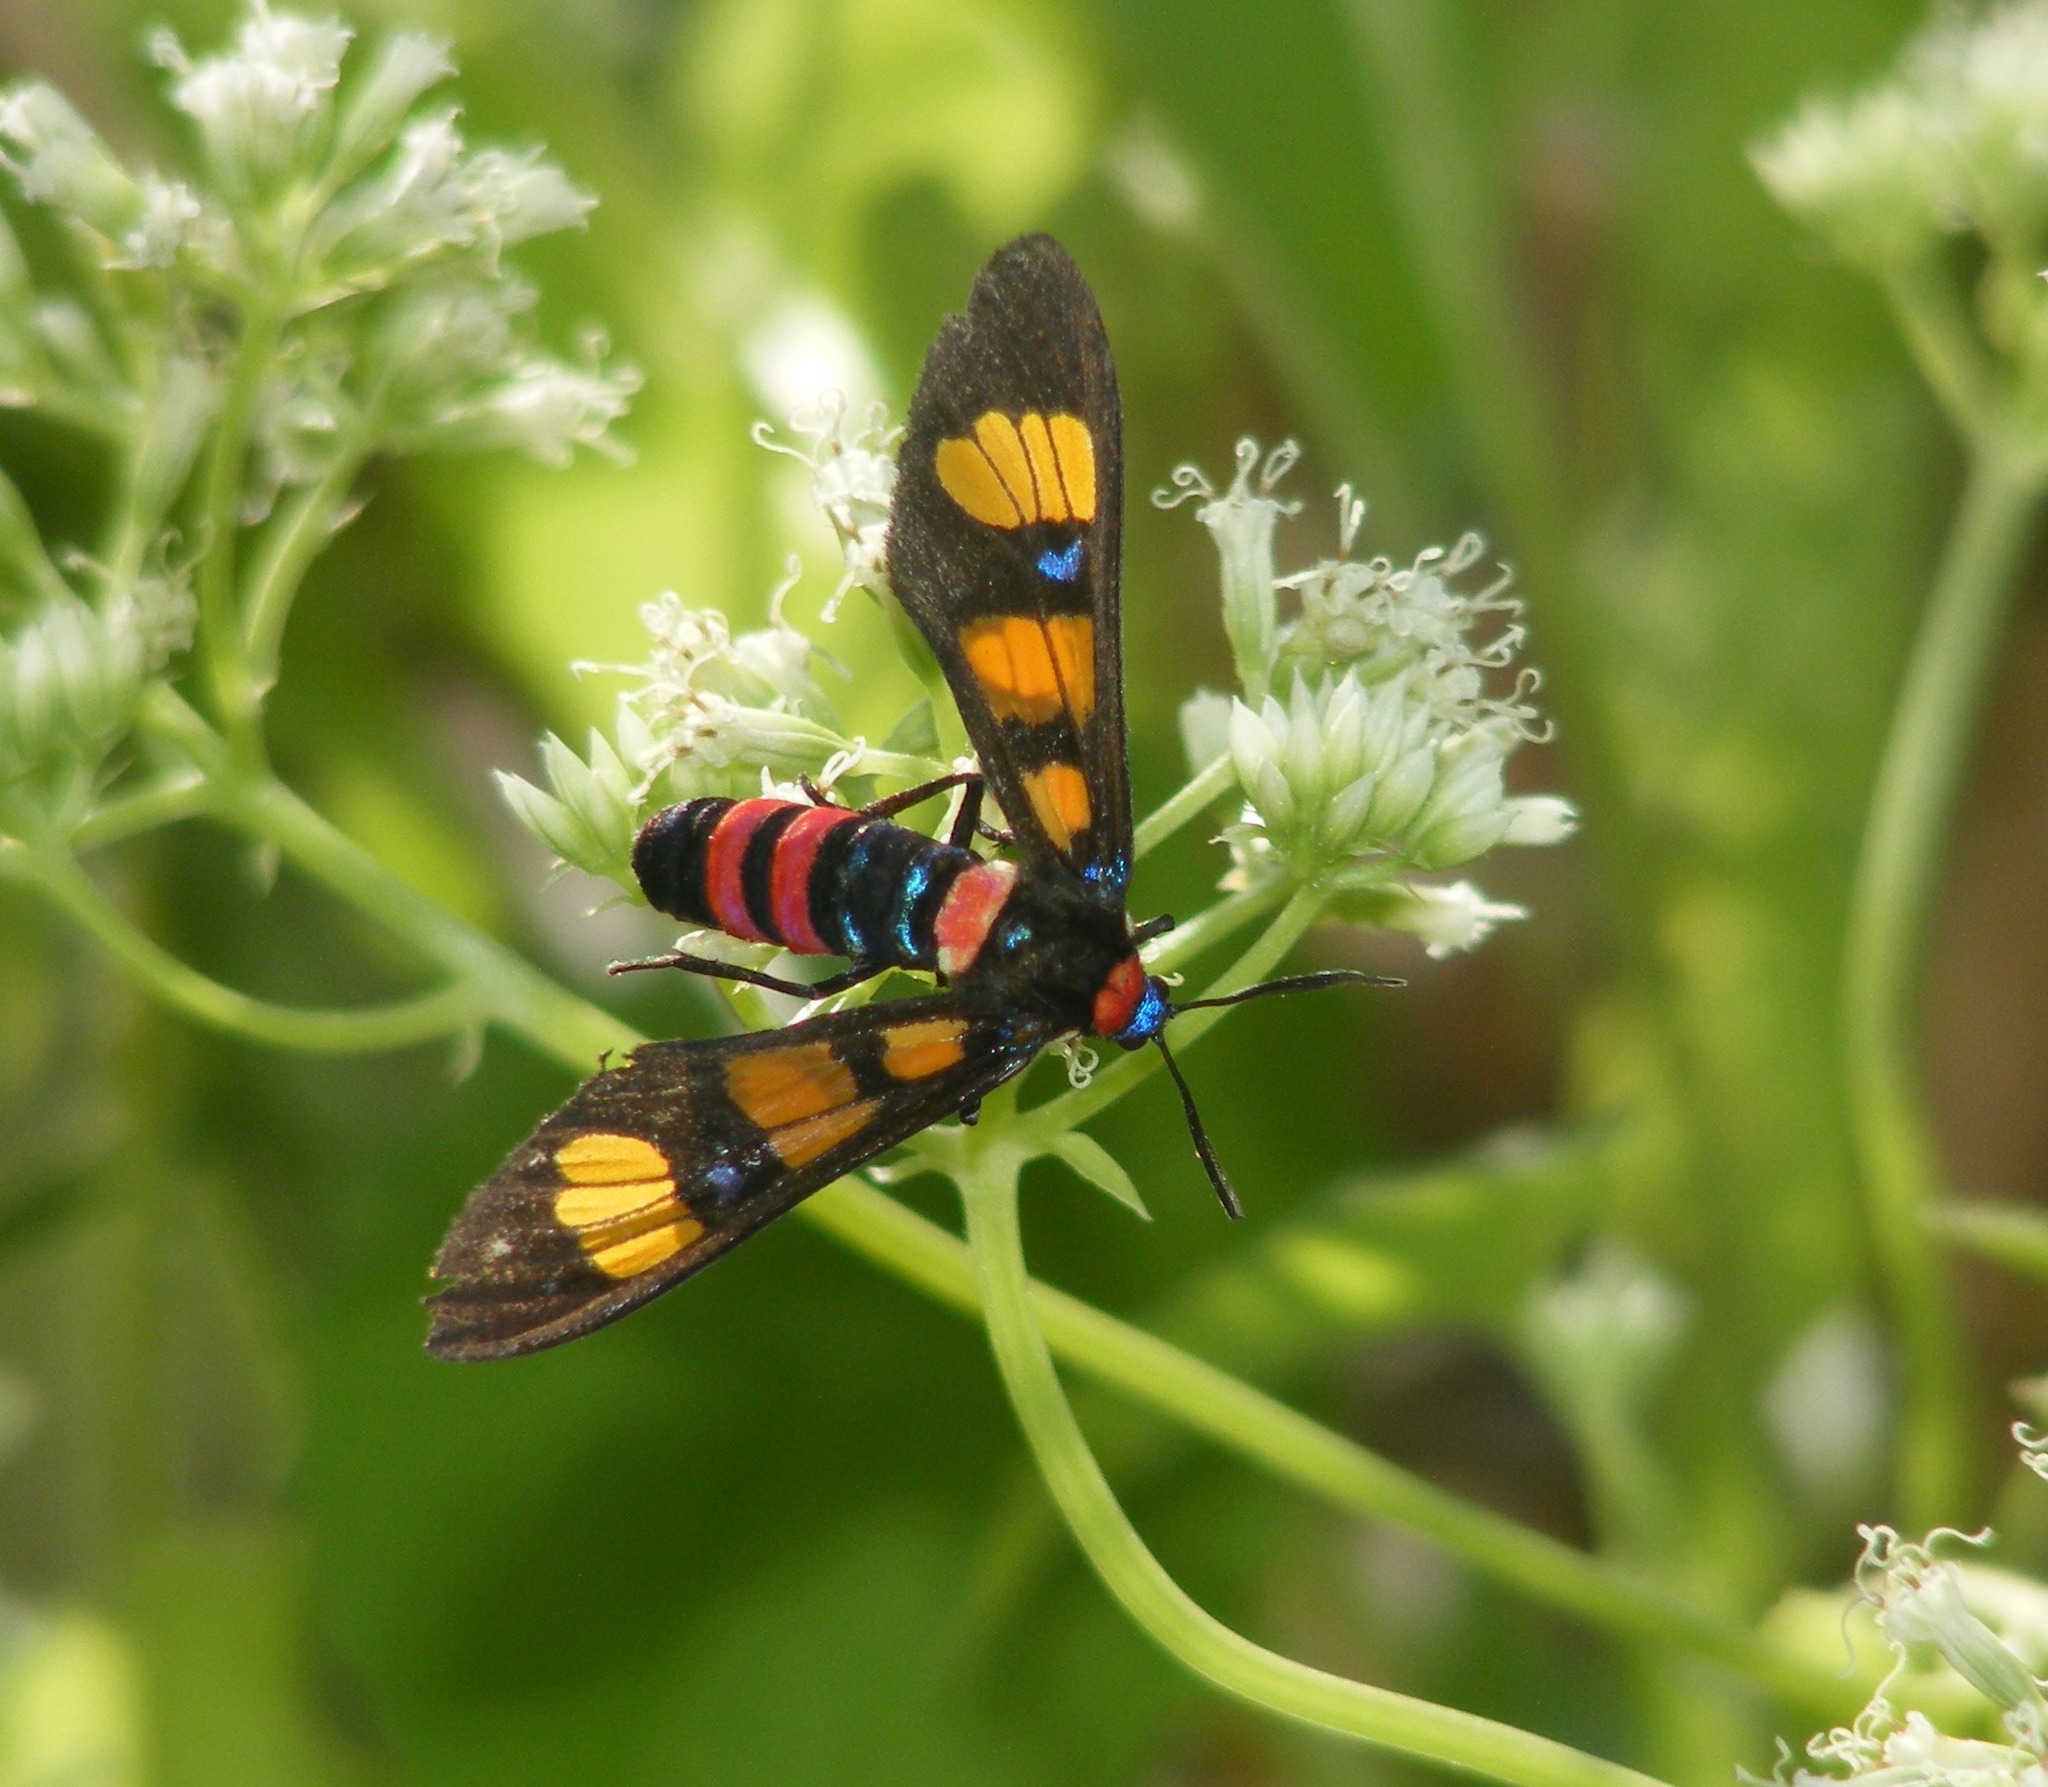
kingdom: Animalia
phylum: Arthropoda
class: Insecta
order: Lepidoptera
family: Erebidae
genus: Euchromia
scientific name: Euchromia polymena
